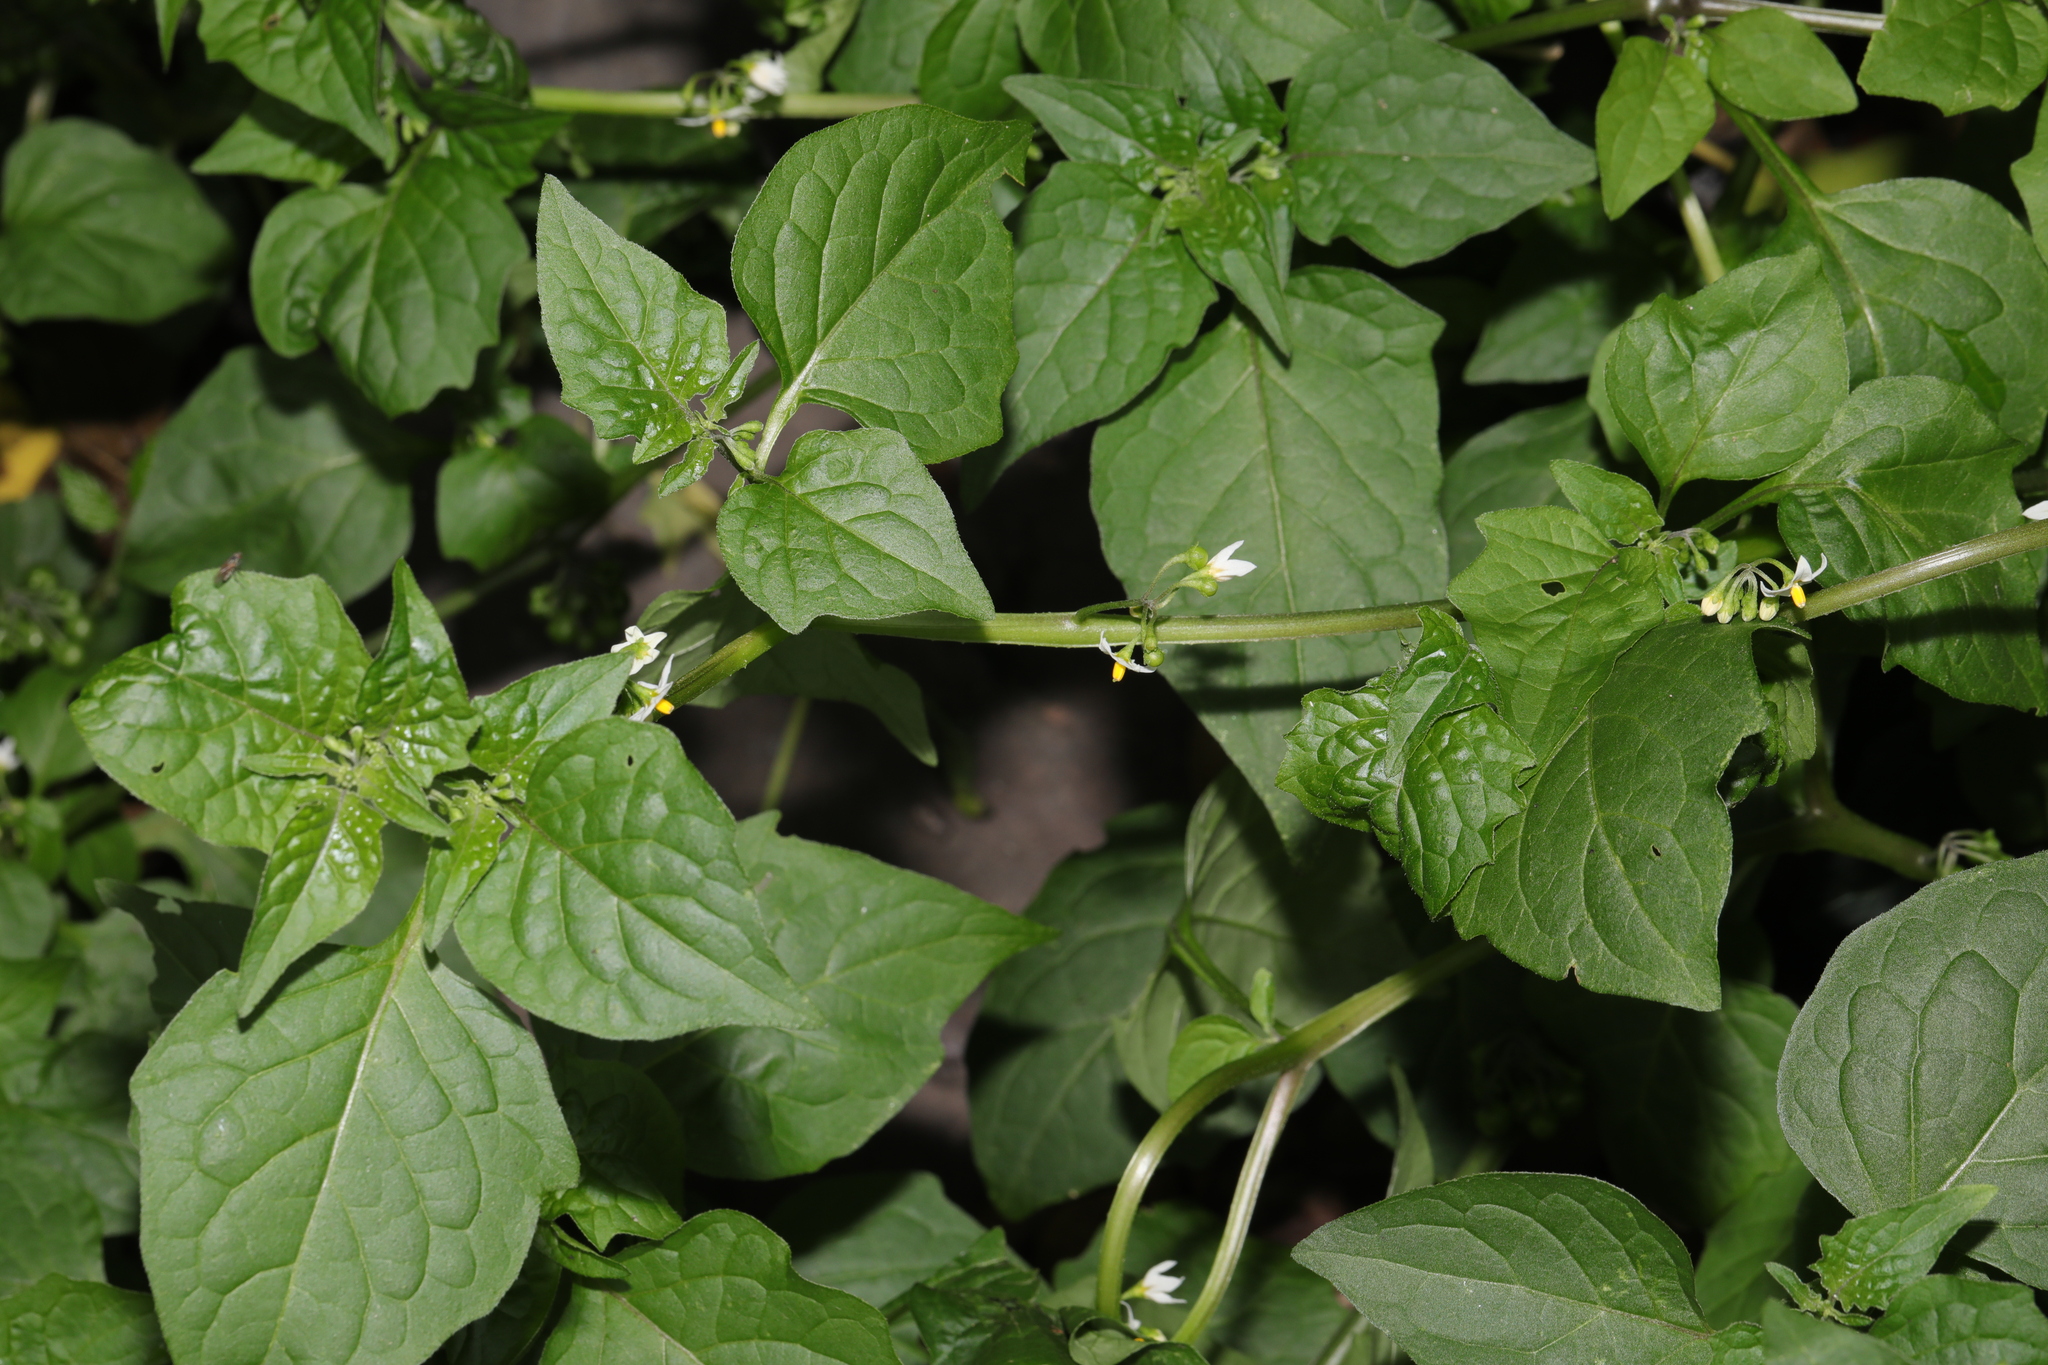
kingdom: Plantae
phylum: Tracheophyta
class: Magnoliopsida
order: Solanales
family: Solanaceae
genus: Solanum
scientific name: Solanum nigrum
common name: Black nightshade
